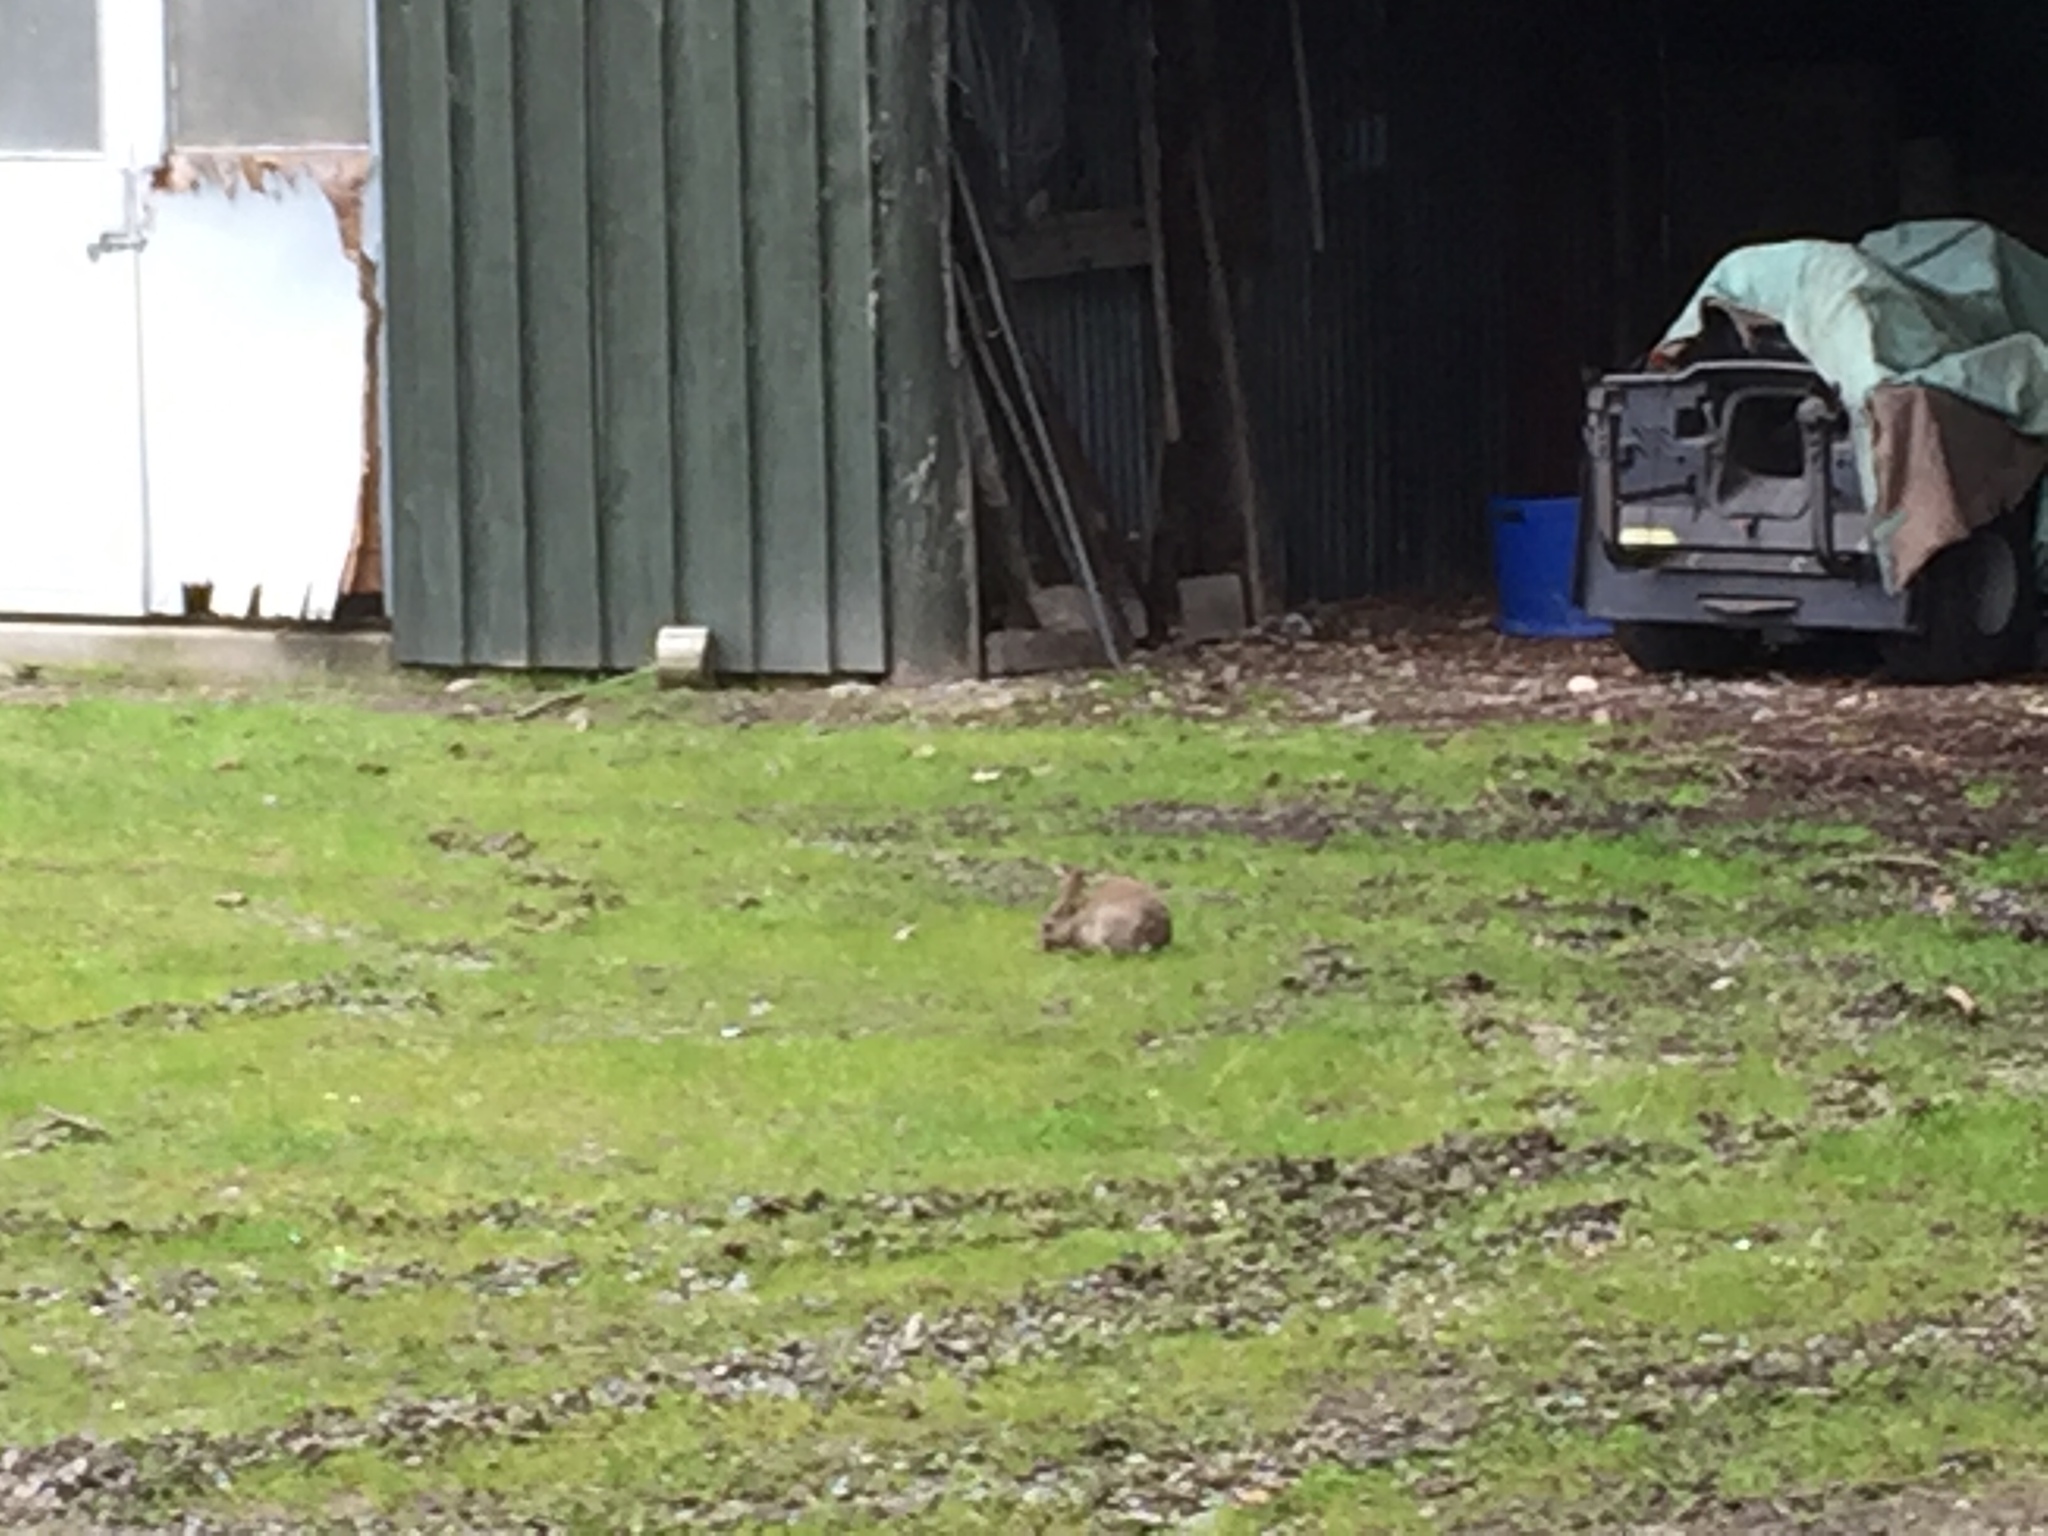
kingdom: Animalia
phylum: Chordata
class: Mammalia
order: Lagomorpha
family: Leporidae
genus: Oryctolagus
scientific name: Oryctolagus cuniculus
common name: European rabbit
